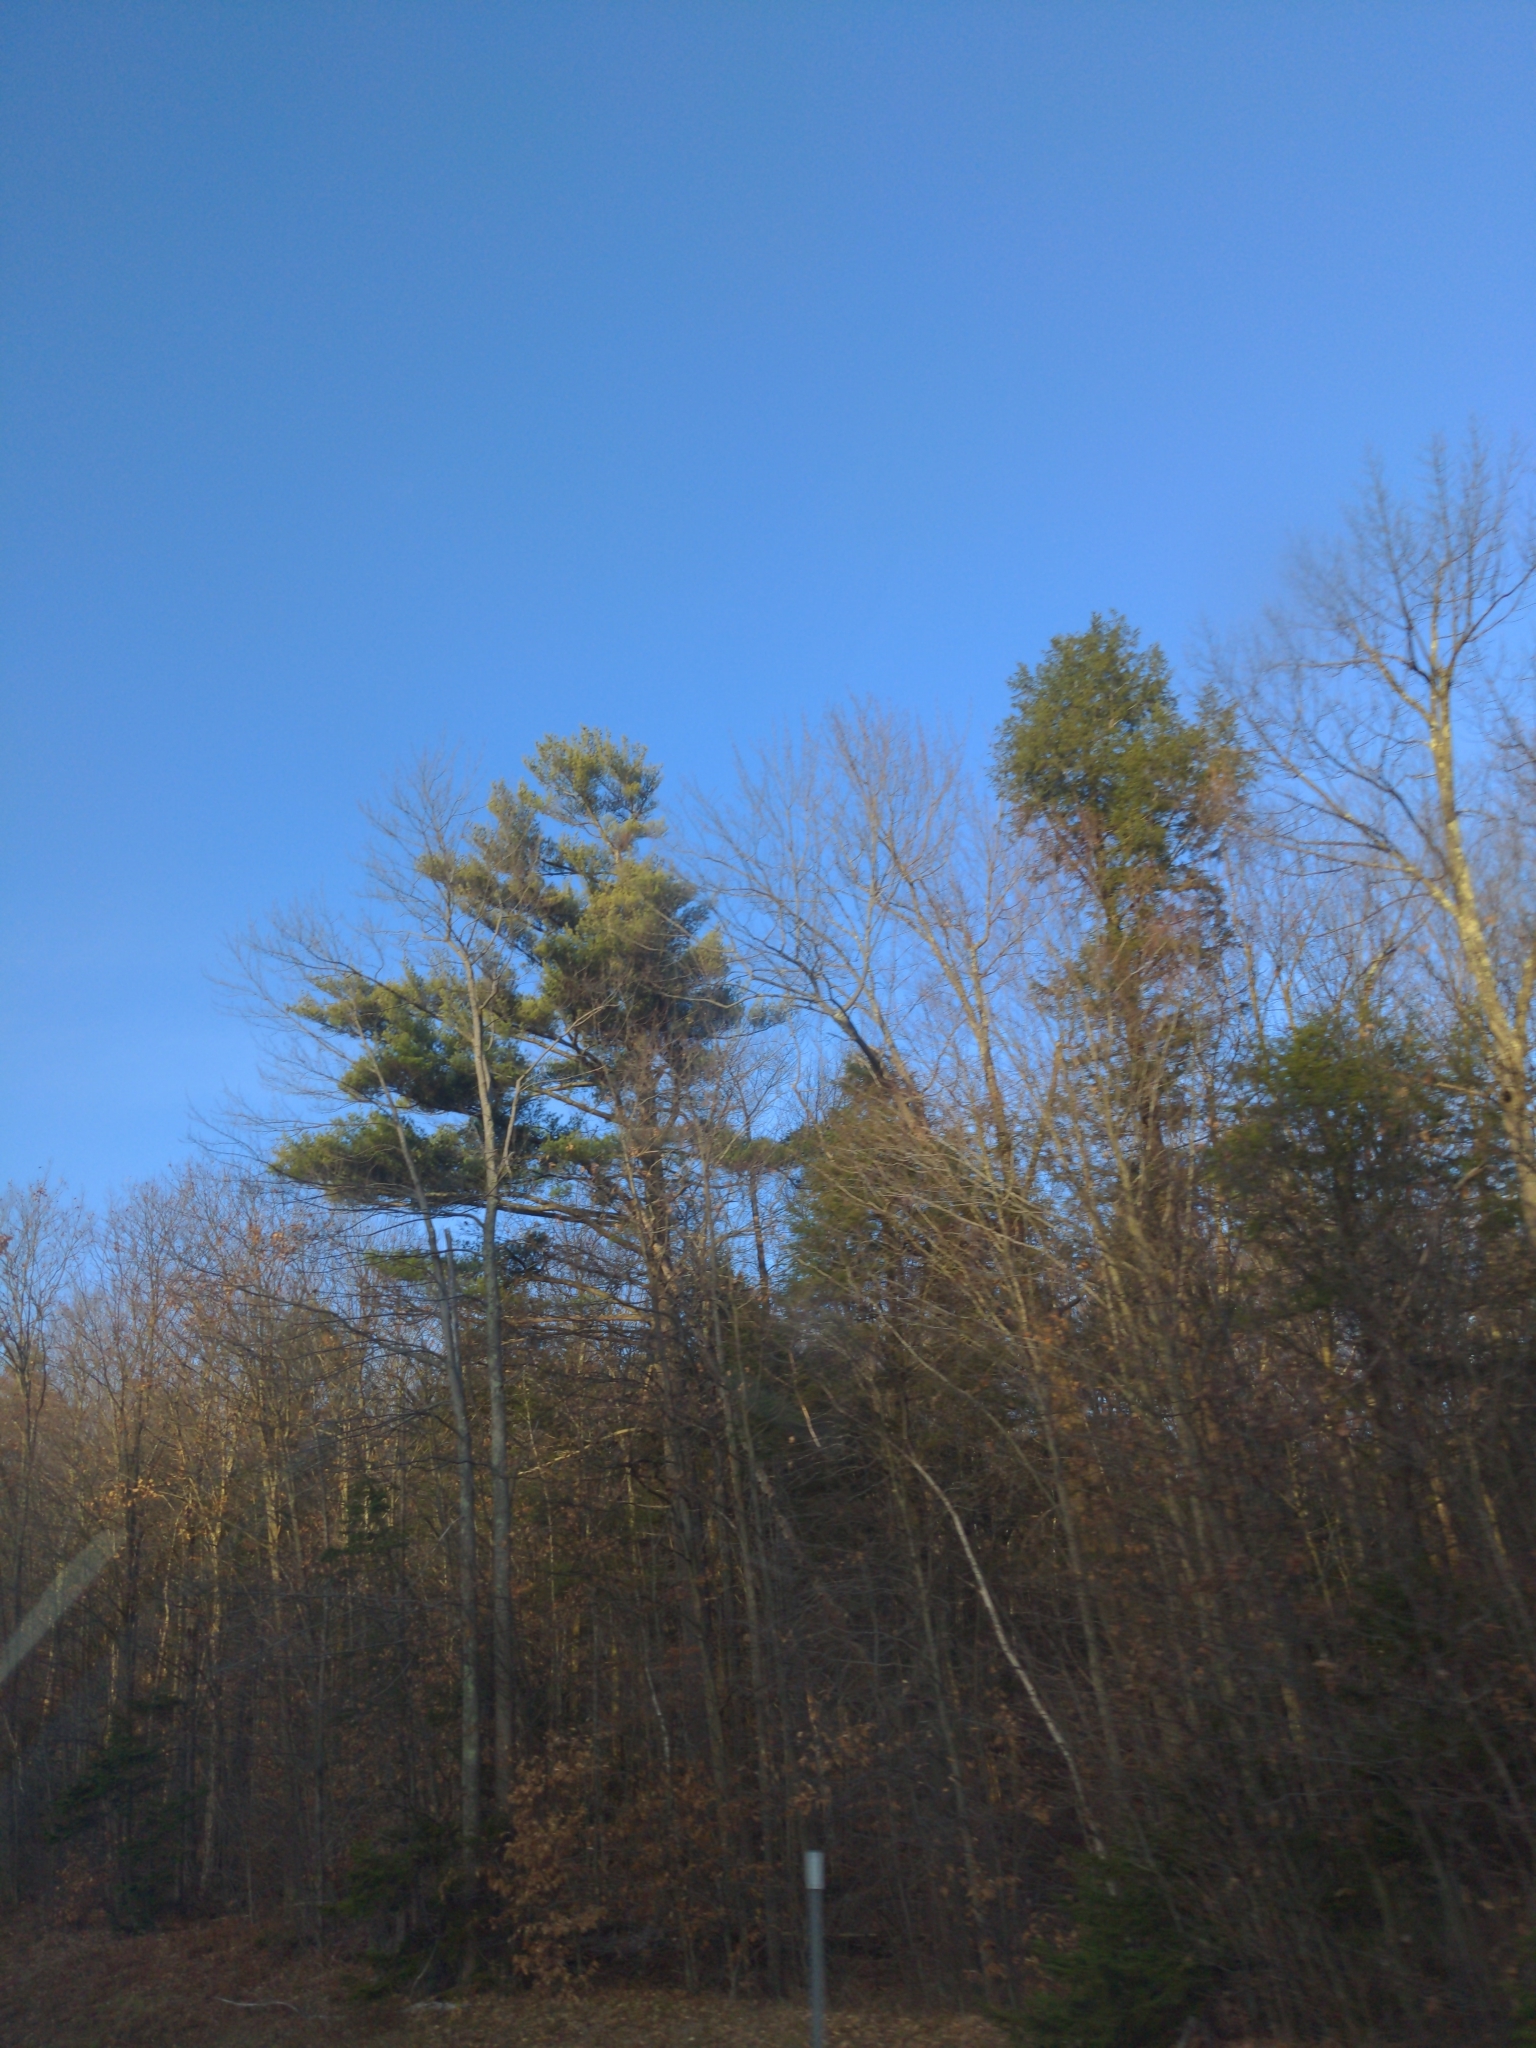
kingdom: Plantae
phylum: Tracheophyta
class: Pinopsida
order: Pinales
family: Pinaceae
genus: Pinus
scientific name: Pinus strobus
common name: Weymouth pine
